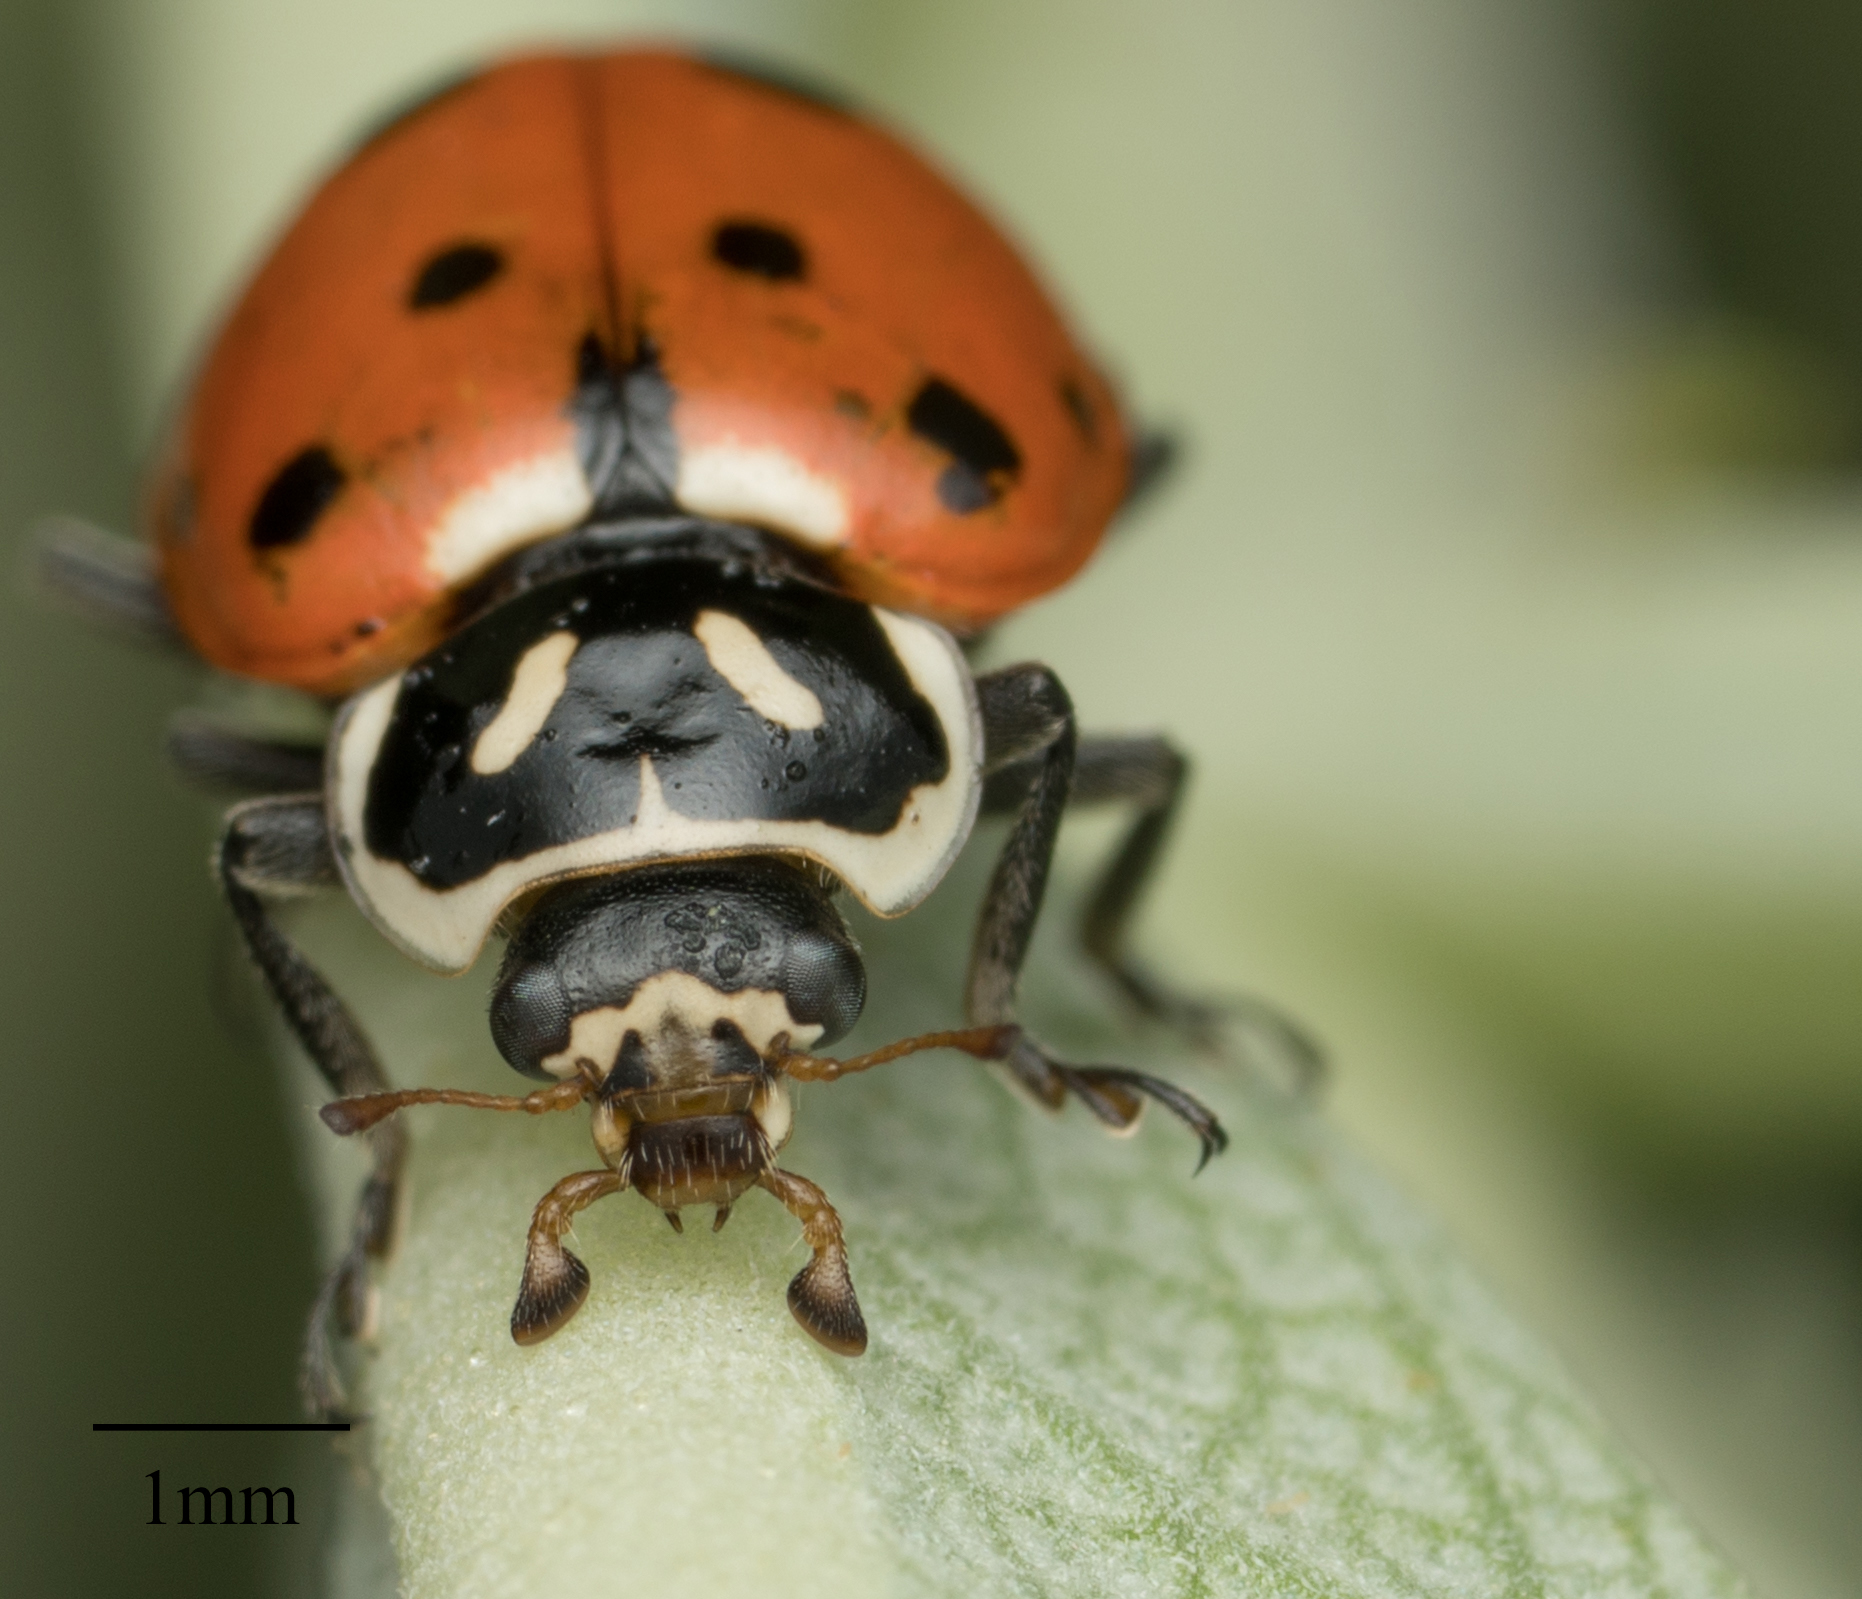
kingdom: Animalia
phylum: Arthropoda
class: Insecta
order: Coleoptera
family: Coccinellidae
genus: Hippodamia
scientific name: Hippodamia convergens
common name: Convergent lady beetle
